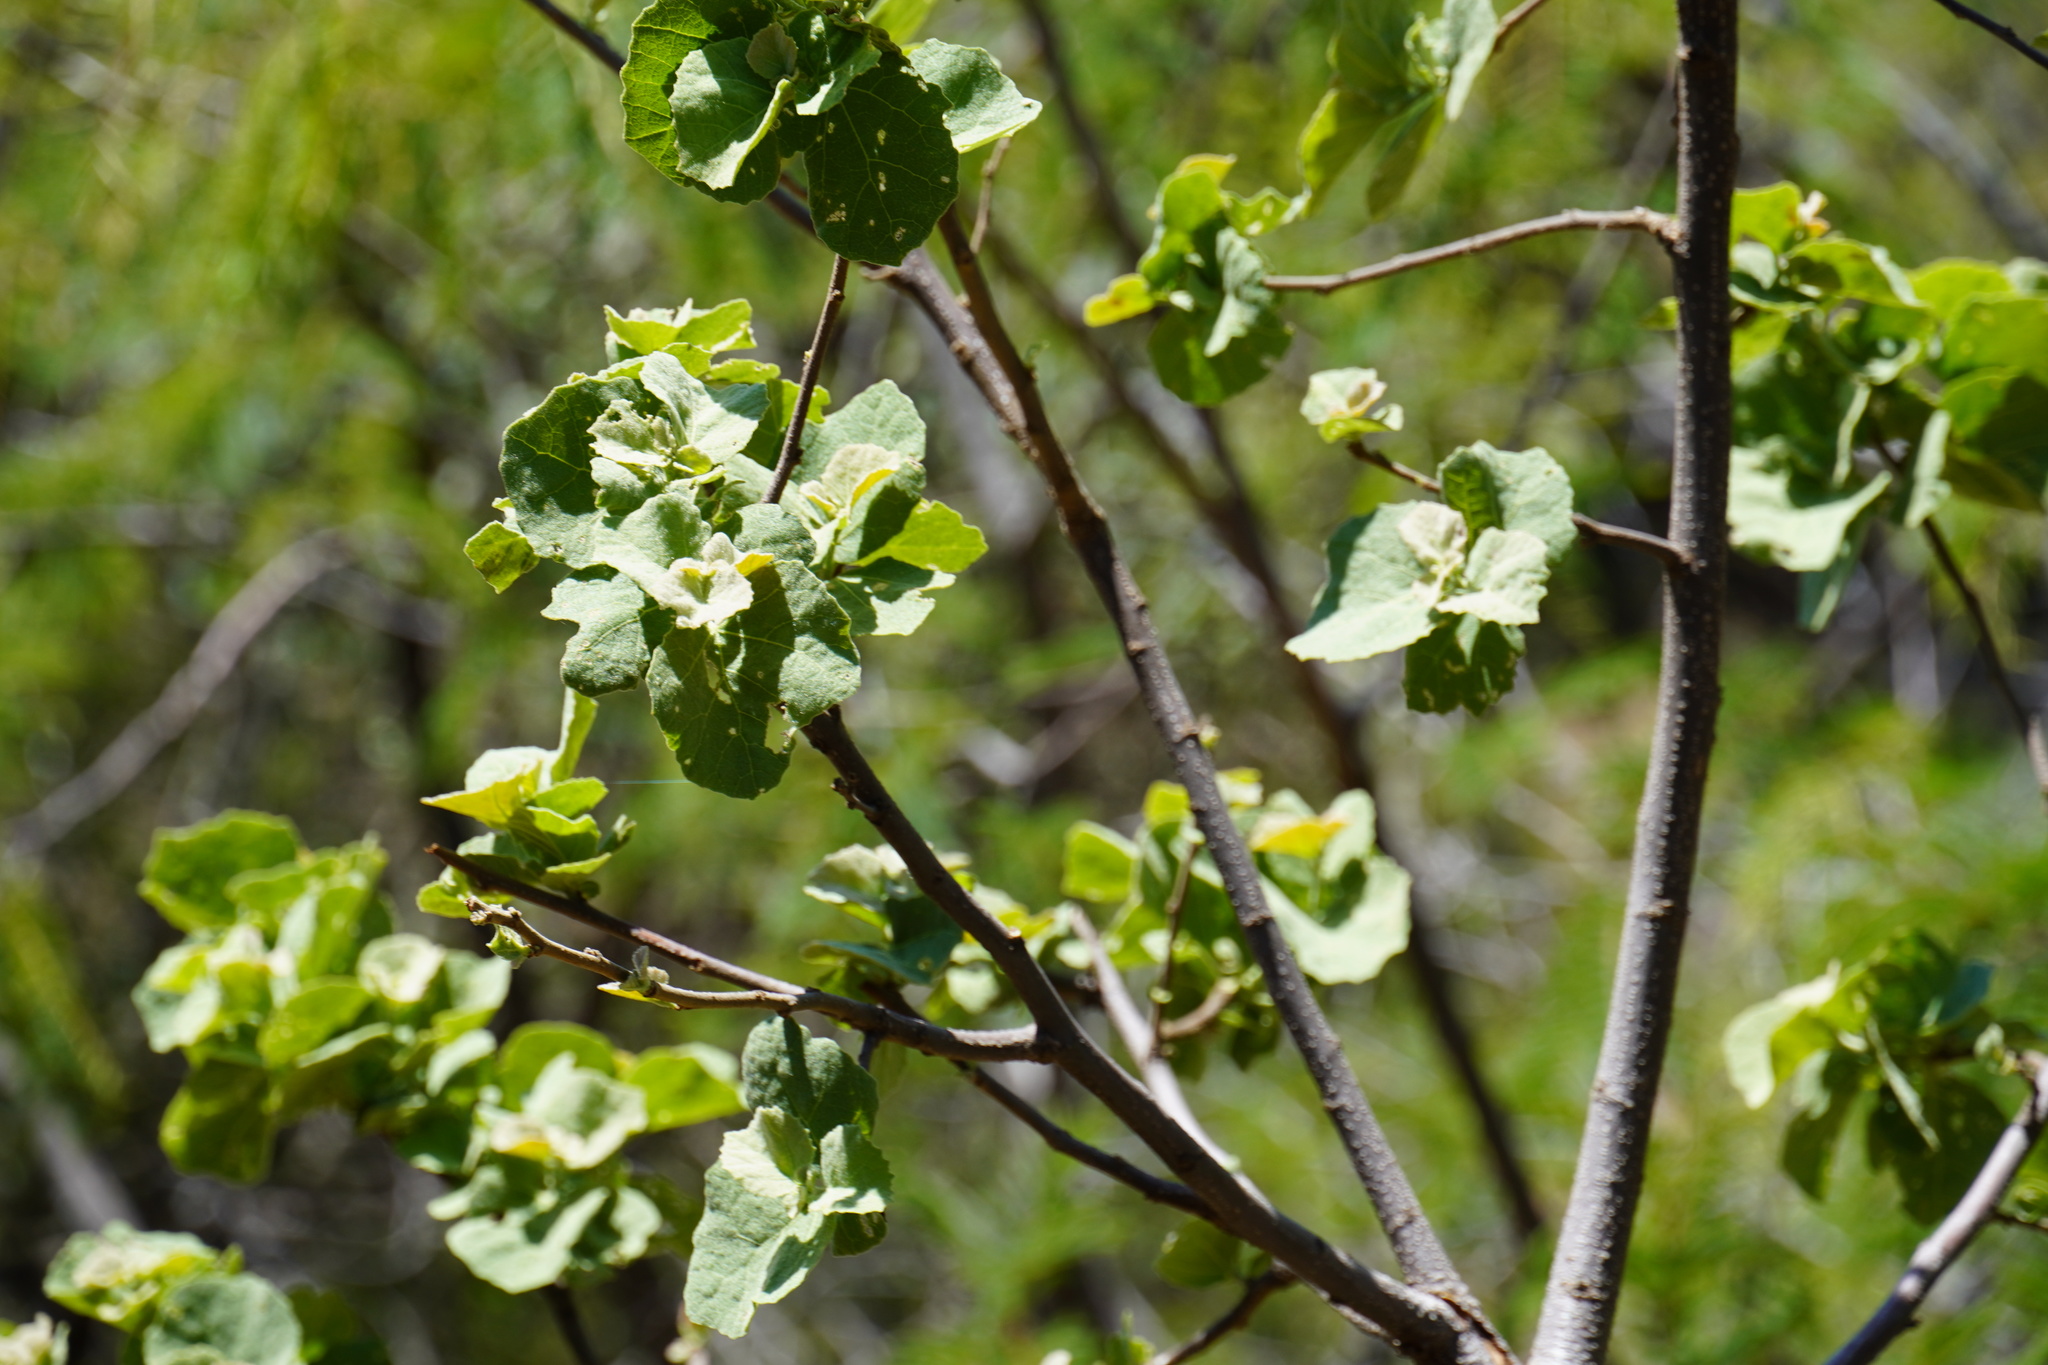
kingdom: Plantae
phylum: Tracheophyta
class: Magnoliopsida
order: Malvales
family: Malvaceae
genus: Dombeya
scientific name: Dombeya rotundifolia
